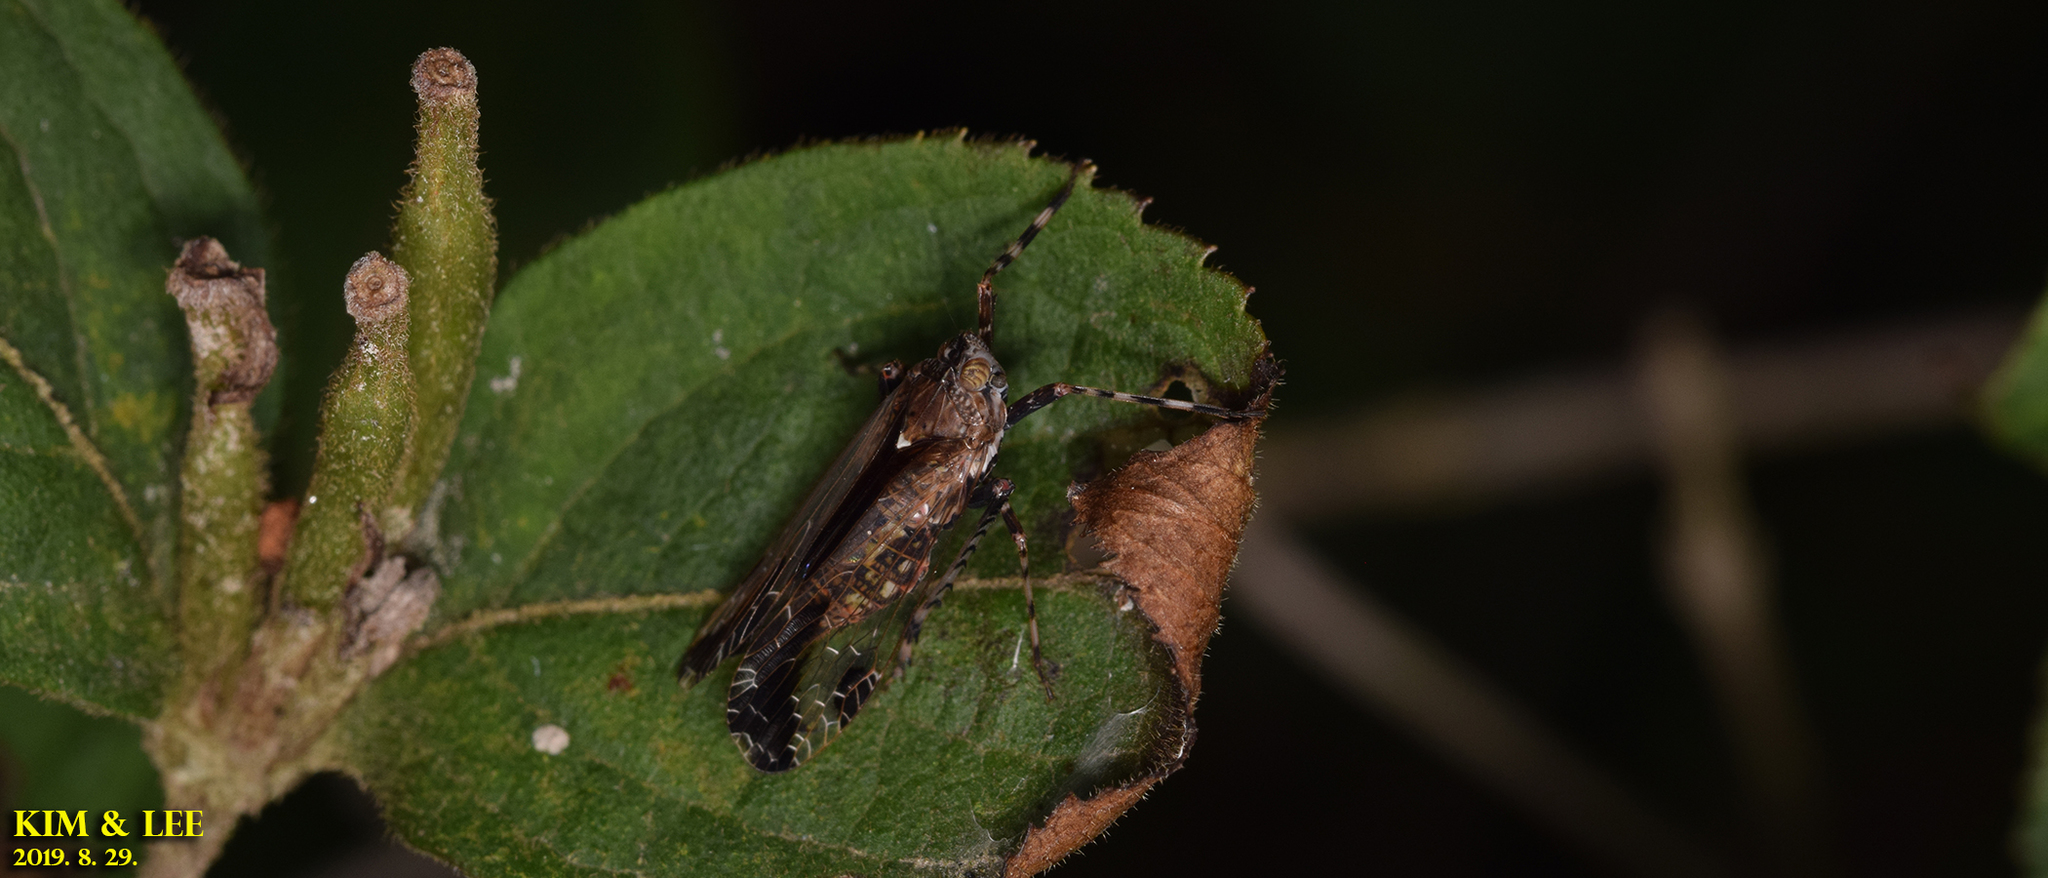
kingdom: Animalia
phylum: Arthropoda
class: Insecta
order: Hemiptera
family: Dictyopharidae
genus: Orthopagus
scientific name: Orthopagus lunulifer
